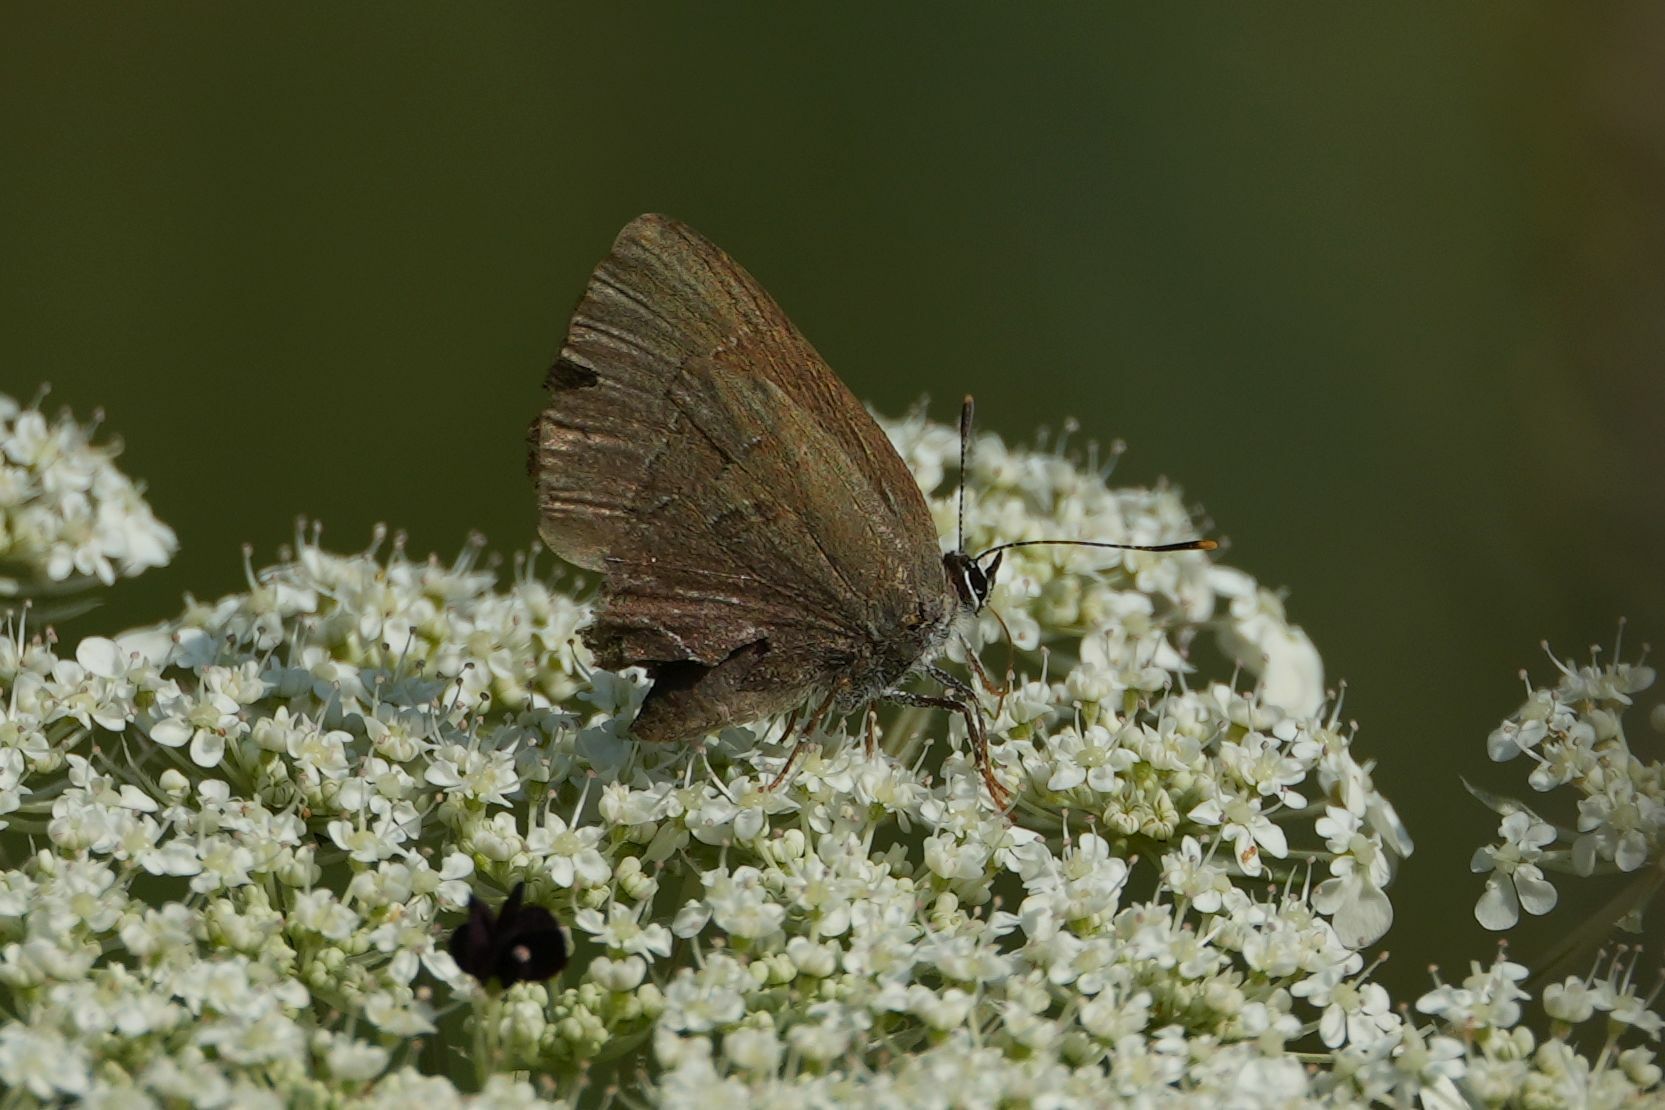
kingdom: Animalia
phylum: Arthropoda
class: Insecta
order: Lepidoptera
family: Lycaenidae
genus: Satyrium
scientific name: Satyrium calanus
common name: Banded hairstreak
